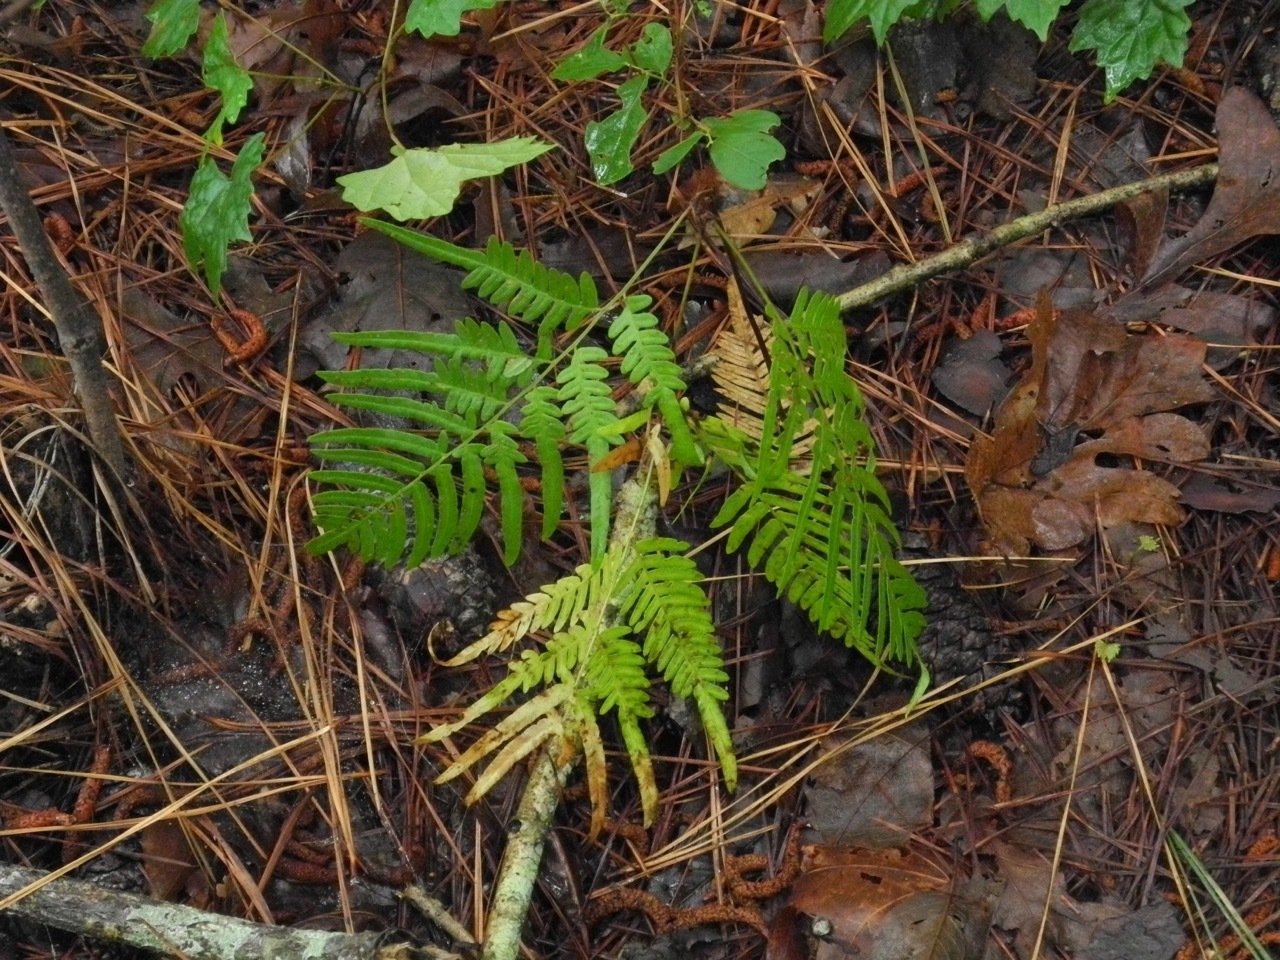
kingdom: Plantae
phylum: Tracheophyta
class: Polypodiopsida
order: Polypodiales
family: Dennstaedtiaceae
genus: Pteridium
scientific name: Pteridium aquilinum
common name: Bracken
